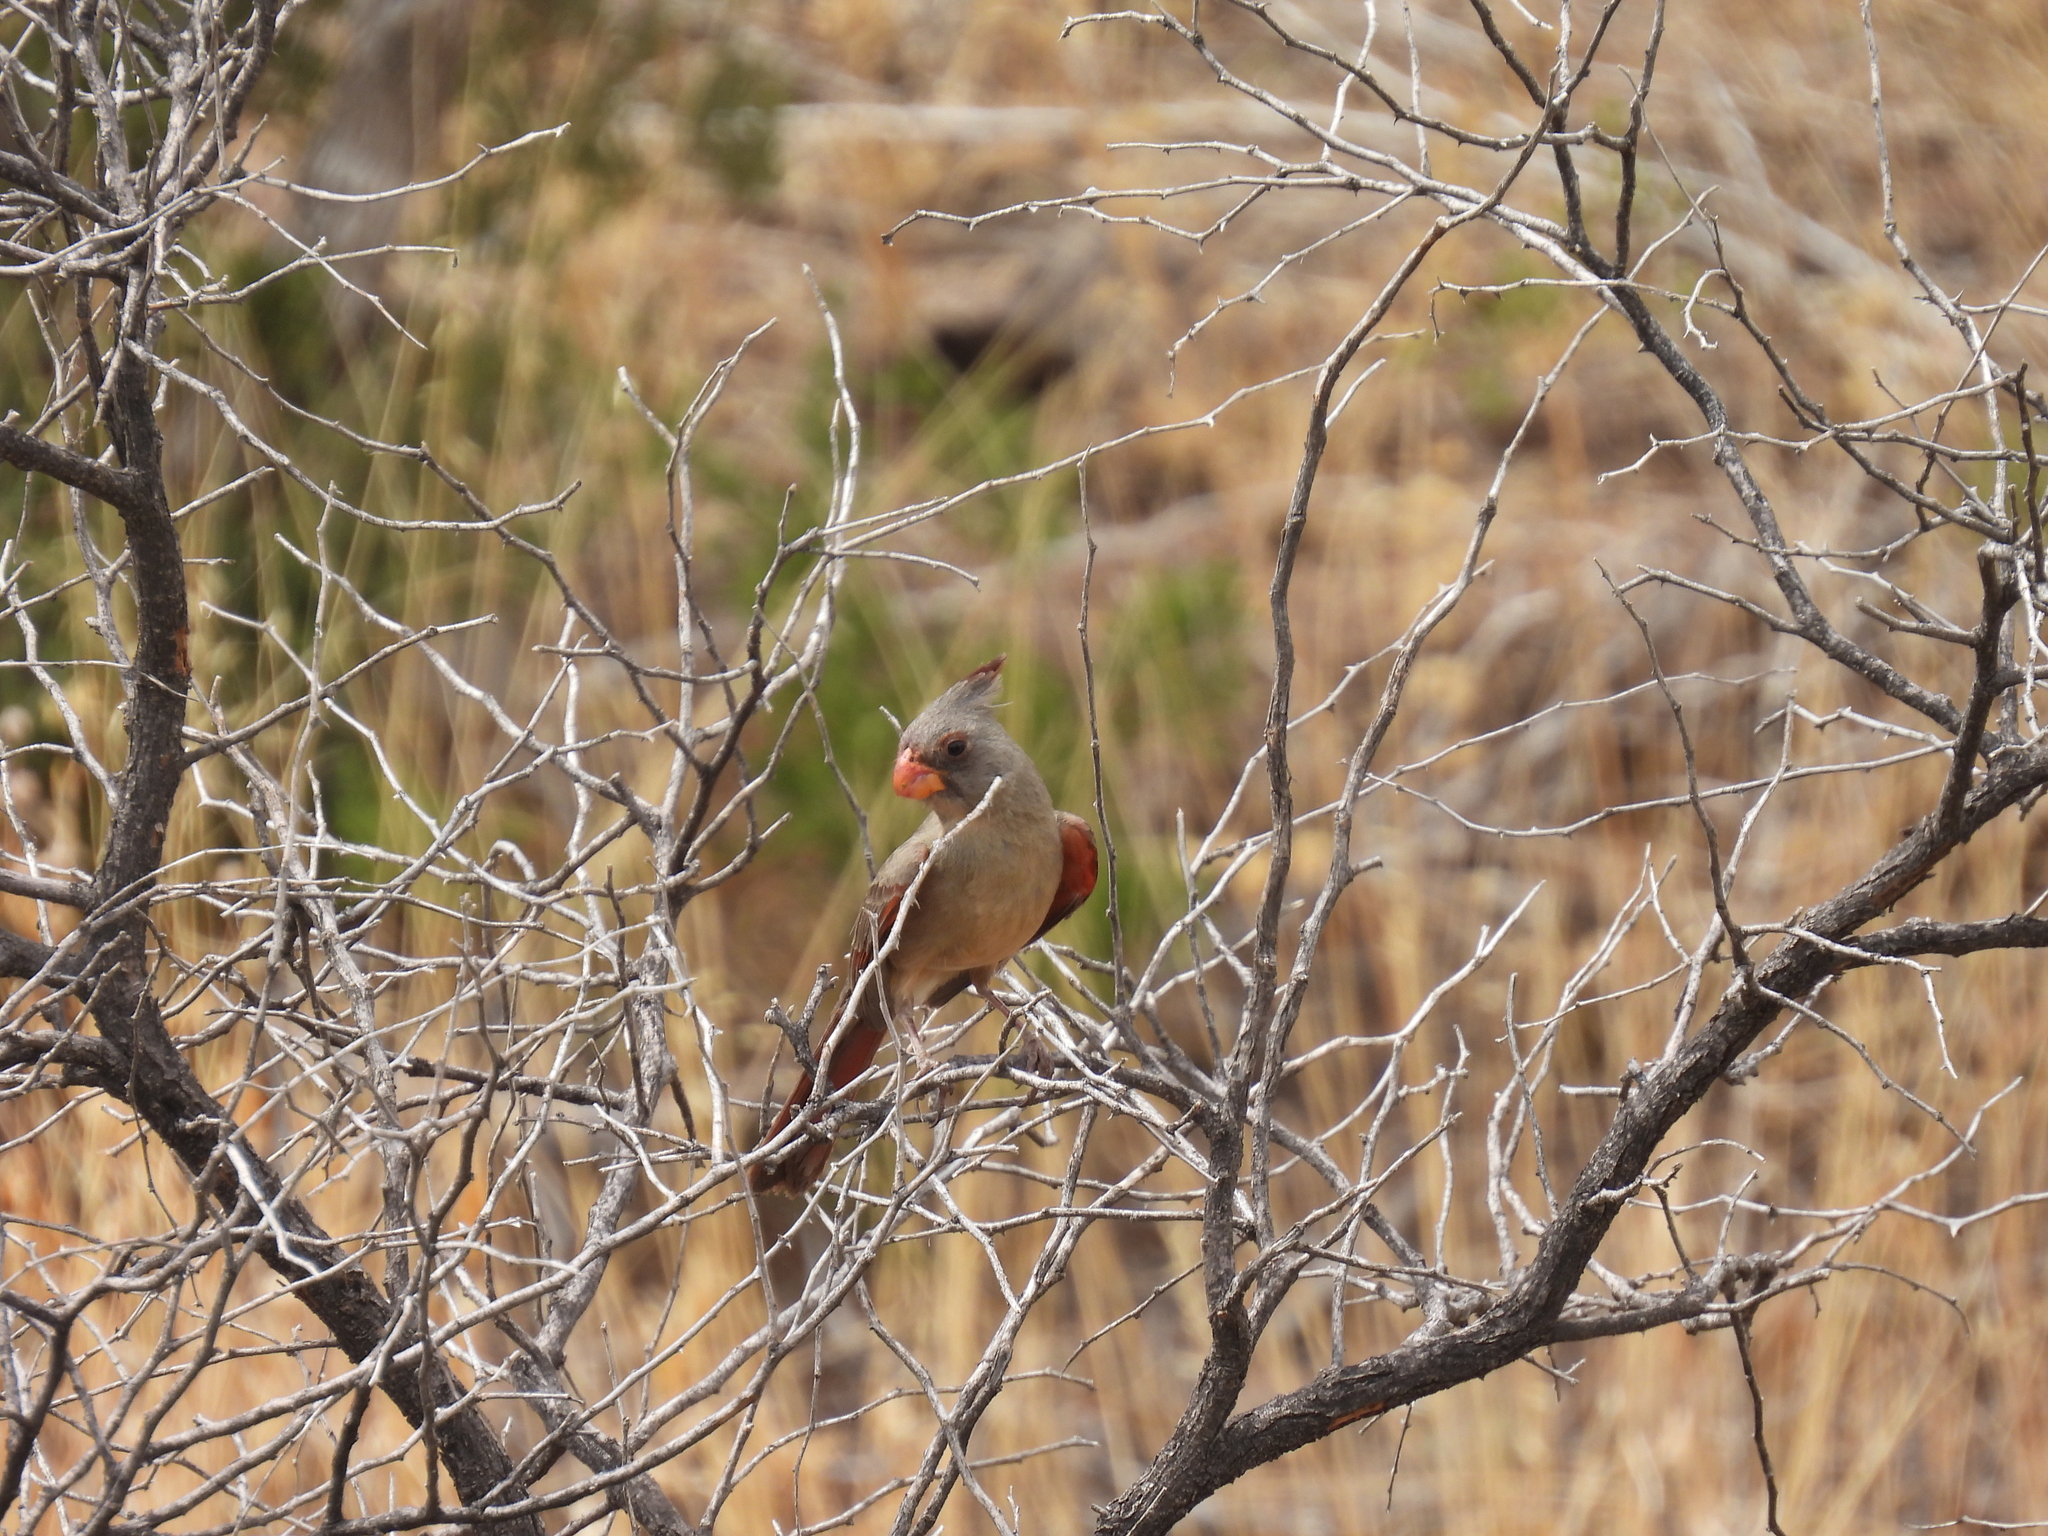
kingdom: Animalia
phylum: Chordata
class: Aves
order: Passeriformes
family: Cardinalidae
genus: Cardinalis
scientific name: Cardinalis sinuatus
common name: Pyrrhuloxia
